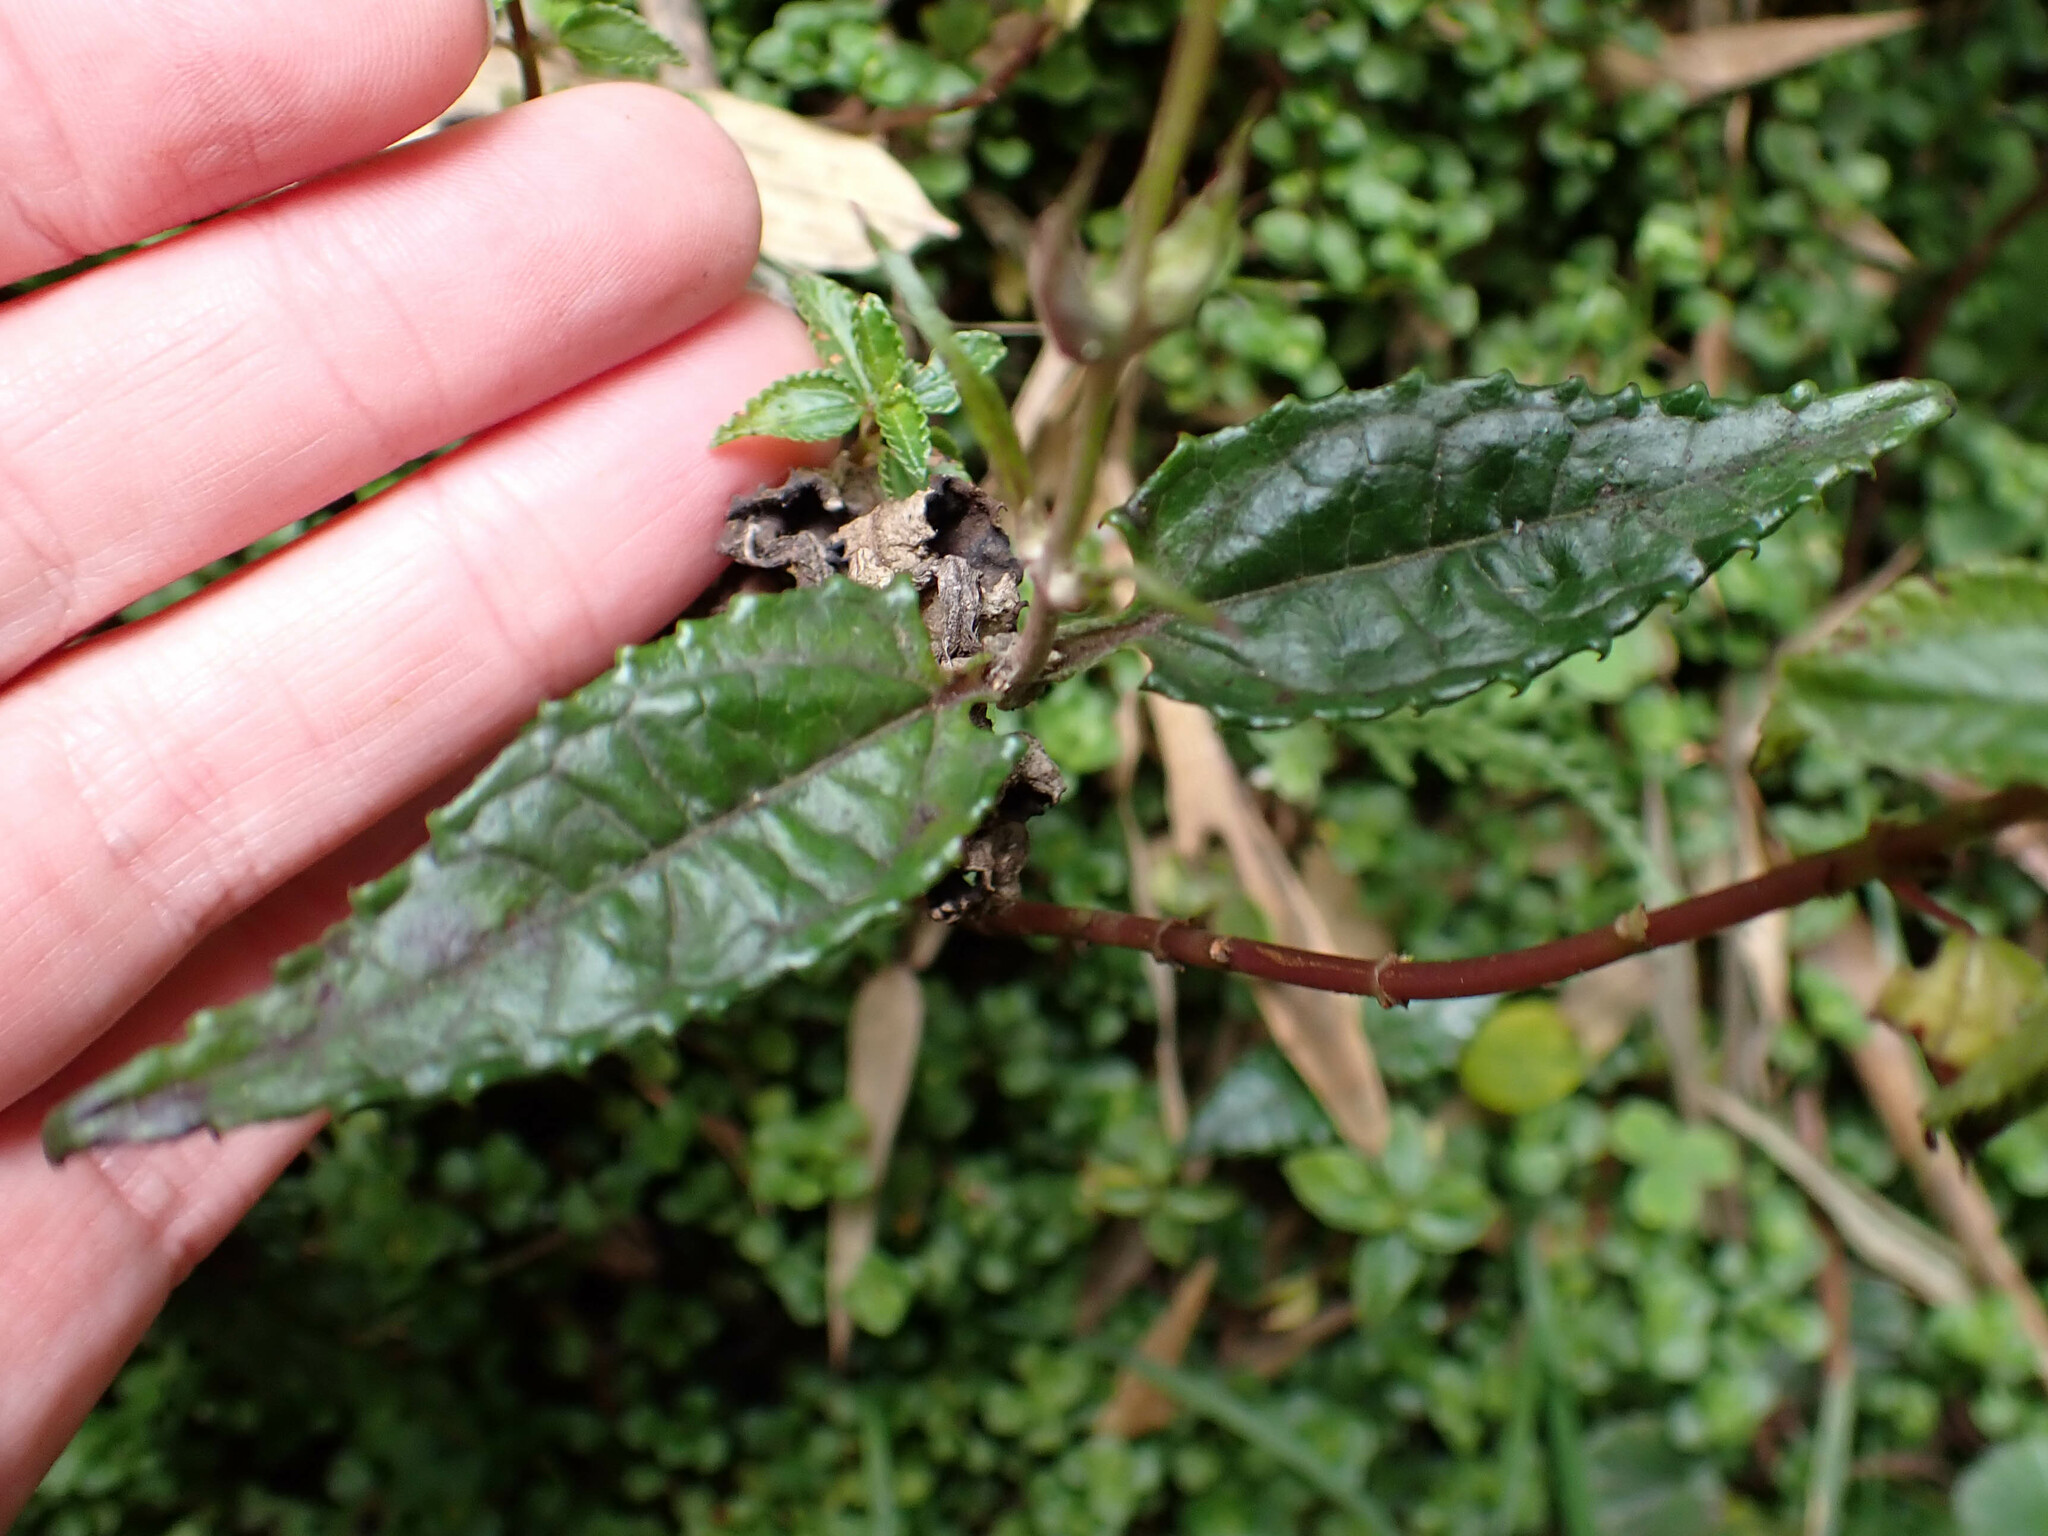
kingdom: Plantae
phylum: Tracheophyta
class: Magnoliopsida
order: Asterales
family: Asteraceae
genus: Munnozia
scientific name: Munnozia senecionidis
